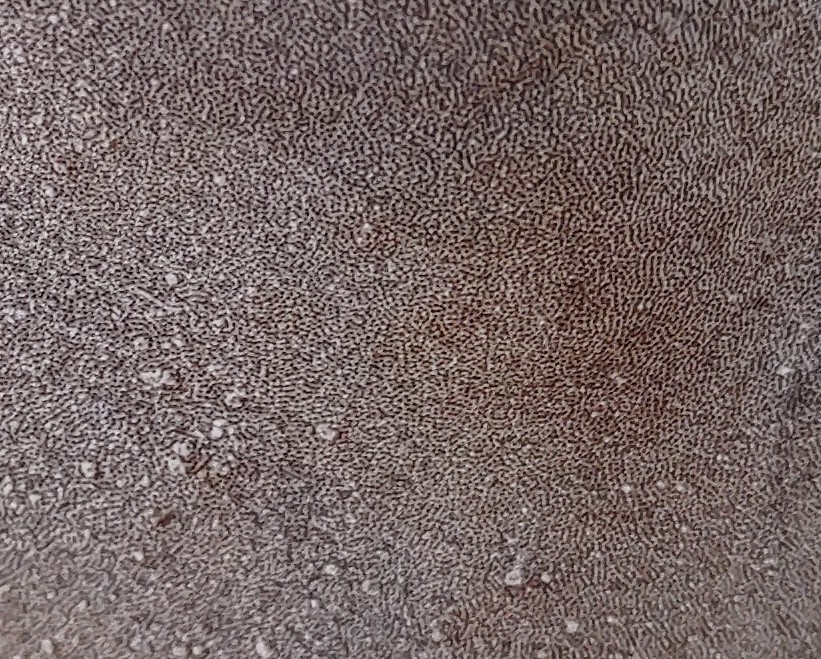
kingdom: Fungi
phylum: Basidiomycota
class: Agaricomycetes
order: Hymenochaetales
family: Hymenochaetaceae
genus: Phellinus
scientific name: Phellinus igniarius
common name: Willow bracket
